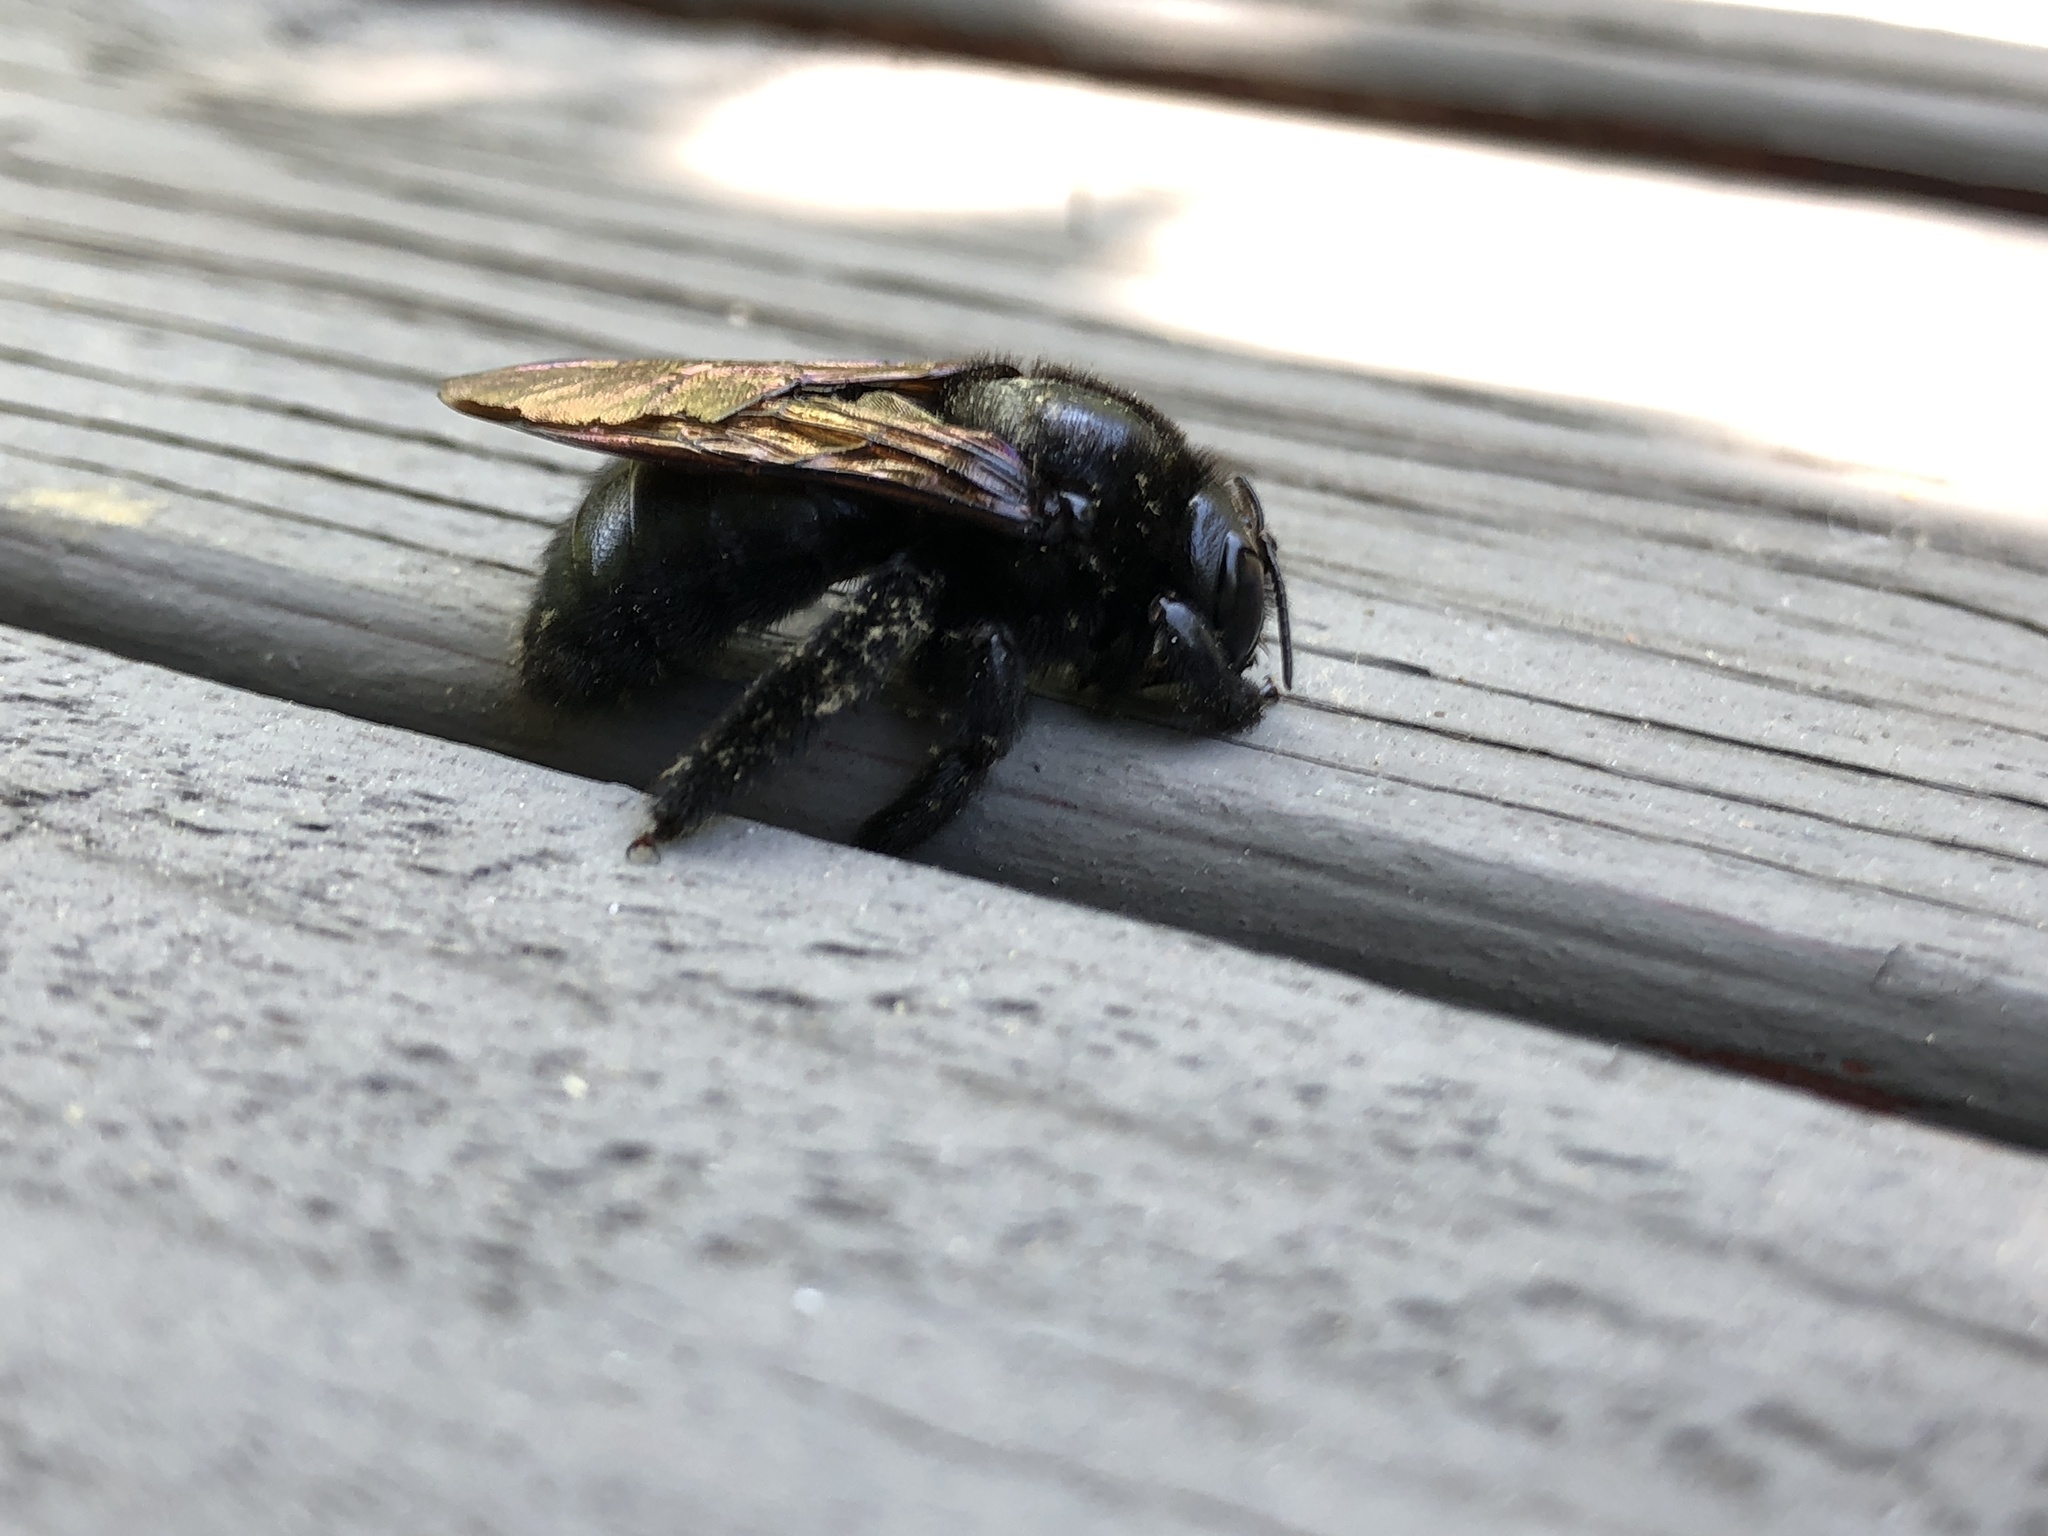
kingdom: Animalia
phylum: Arthropoda
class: Insecta
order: Hymenoptera
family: Apidae
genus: Xylocopa
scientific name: Xylocopa sonorina
